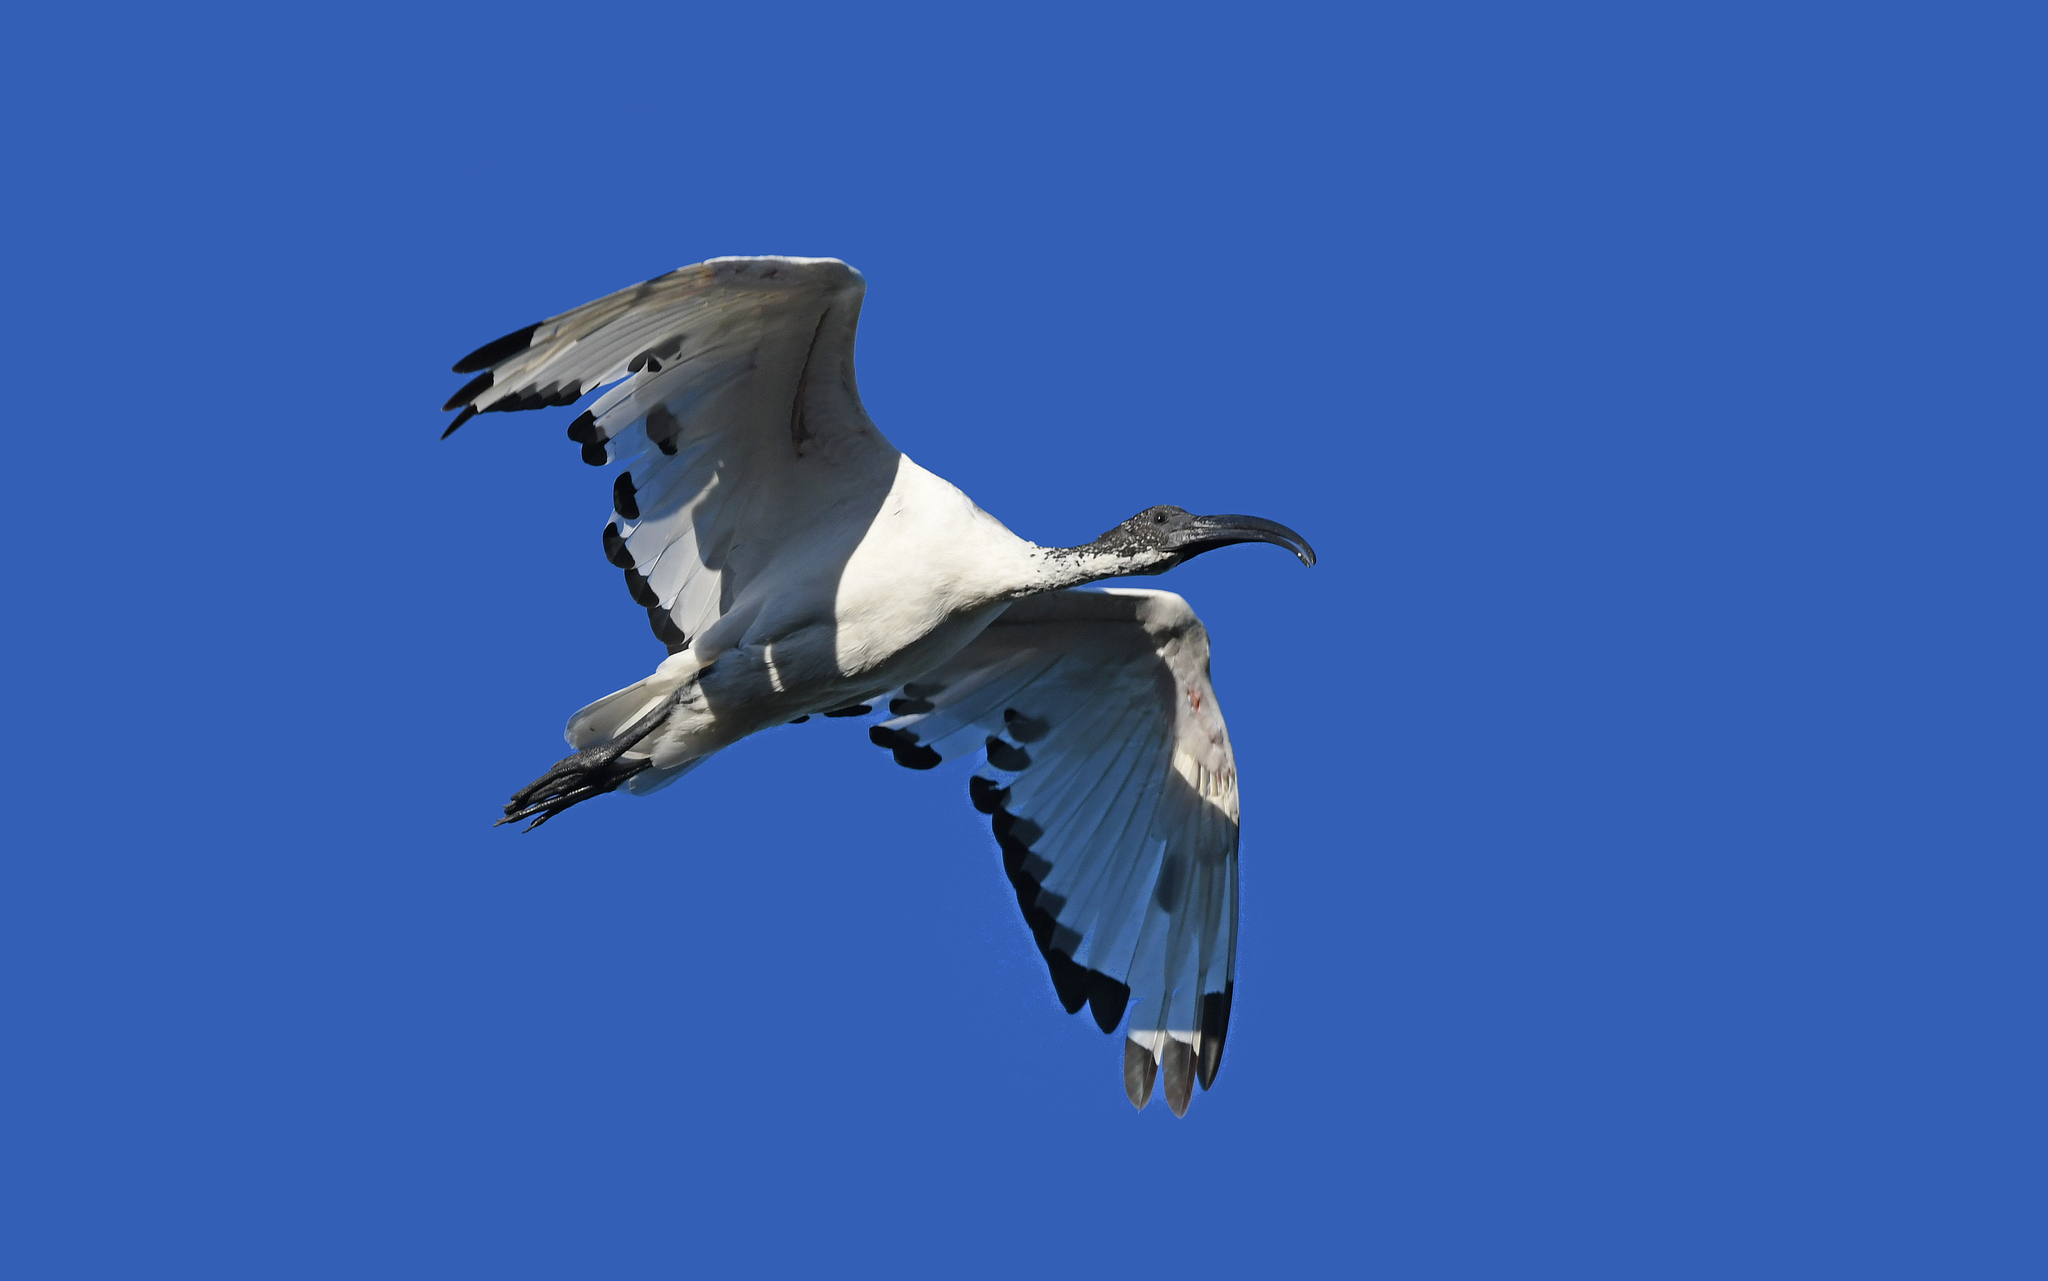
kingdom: Animalia
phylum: Chordata
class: Aves
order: Pelecaniformes
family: Threskiornithidae
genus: Threskiornis
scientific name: Threskiornis aethiopicus
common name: Sacred ibis
